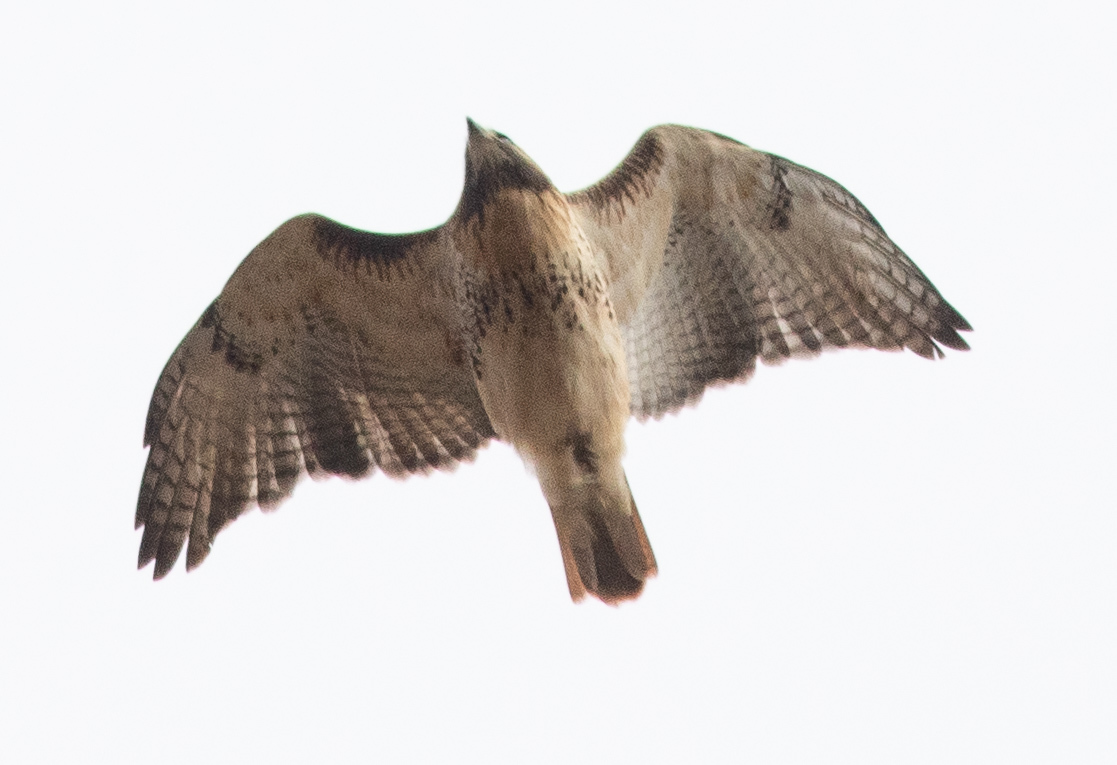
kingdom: Animalia
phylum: Chordata
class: Aves
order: Accipitriformes
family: Accipitridae
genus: Buteo
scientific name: Buteo jamaicensis
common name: Red-tailed hawk
